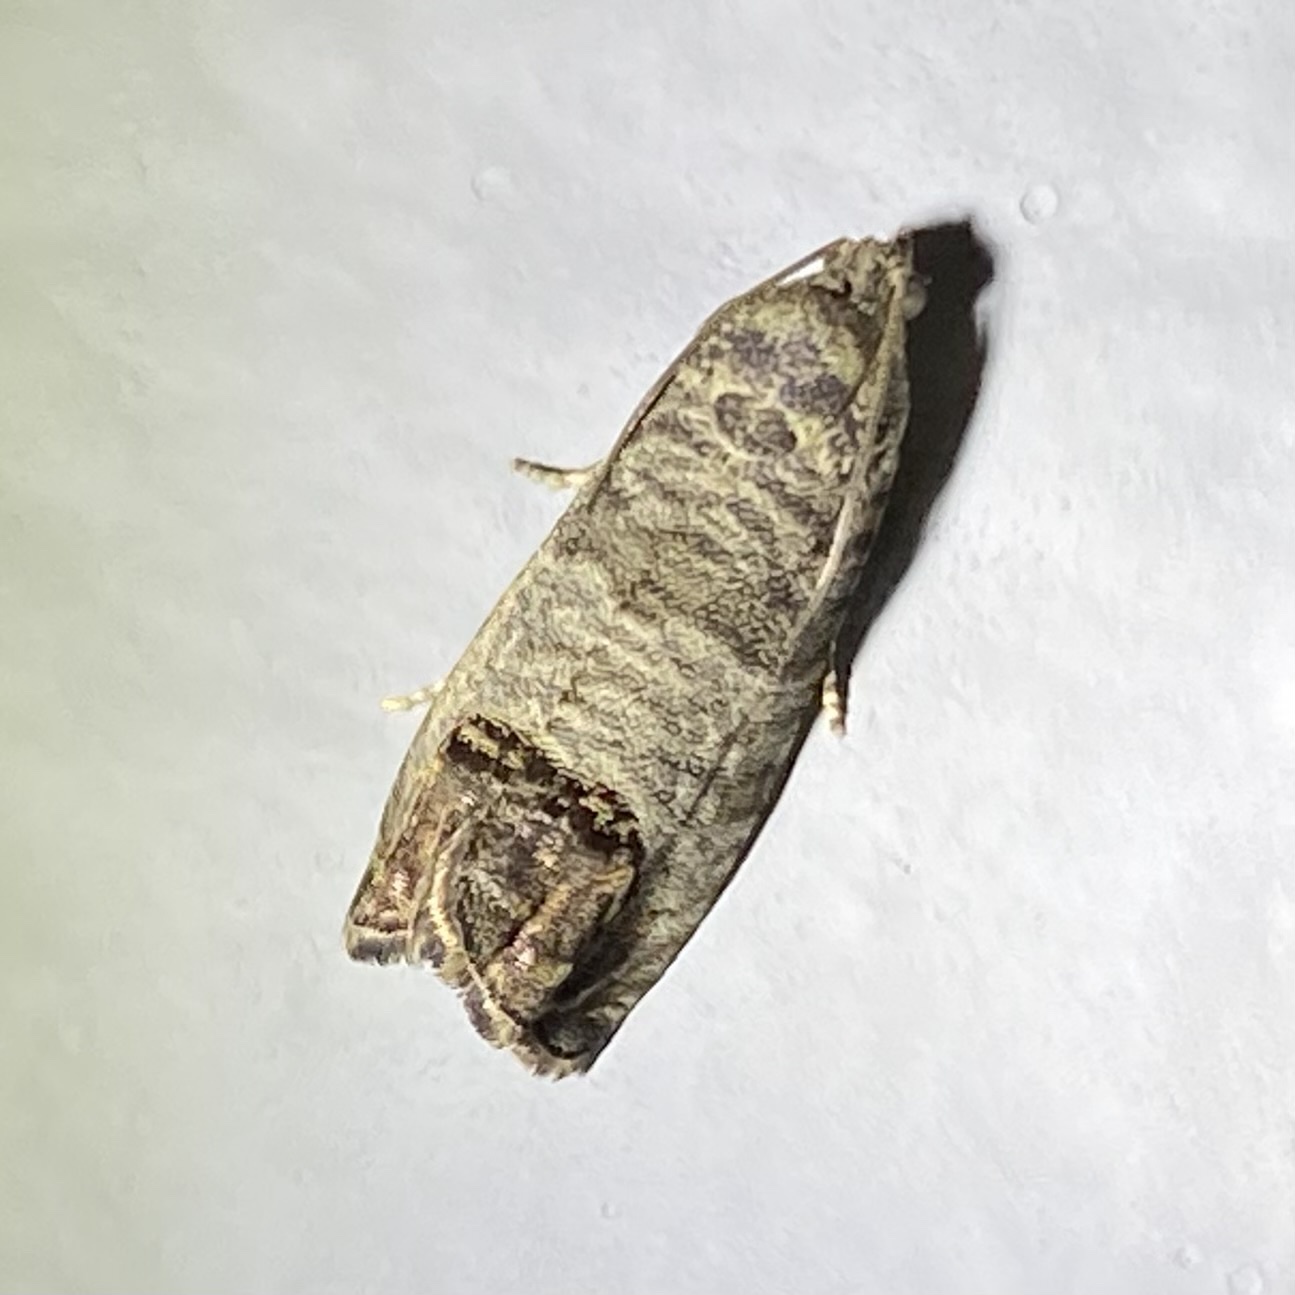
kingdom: Animalia
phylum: Arthropoda
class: Insecta
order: Lepidoptera
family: Tortricidae
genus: Cydia
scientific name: Cydia pomonella
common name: Codling moth
